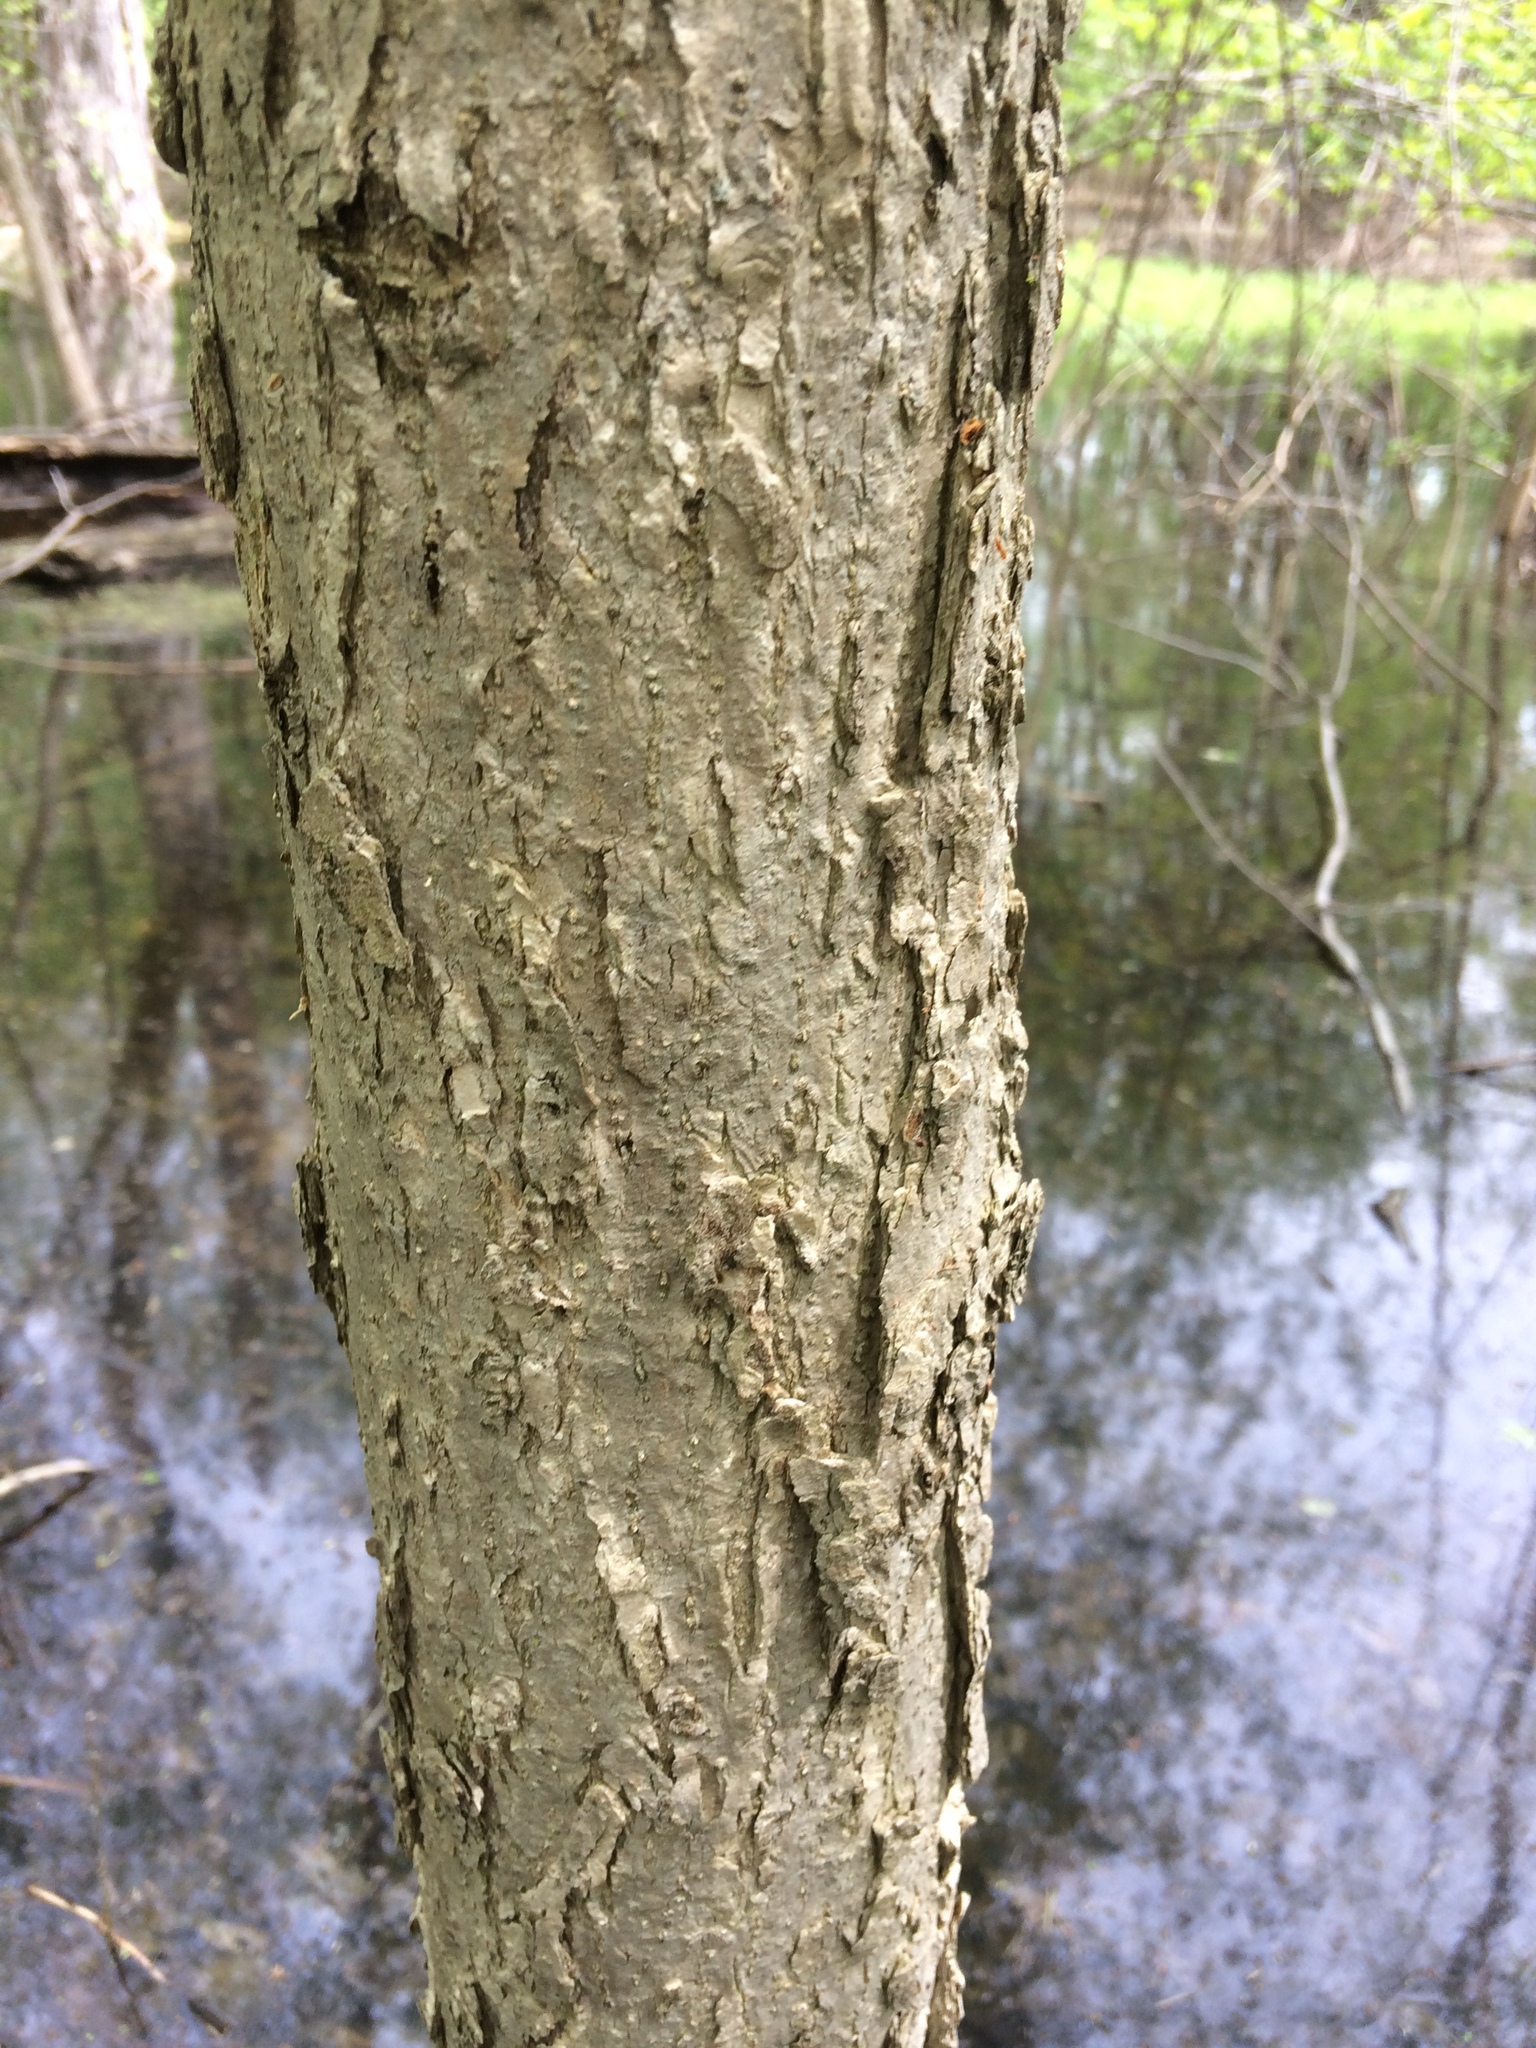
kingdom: Plantae
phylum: Tracheophyta
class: Magnoliopsida
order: Lamiales
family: Oleaceae
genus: Fraxinus
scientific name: Fraxinus nigra
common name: Black ash
